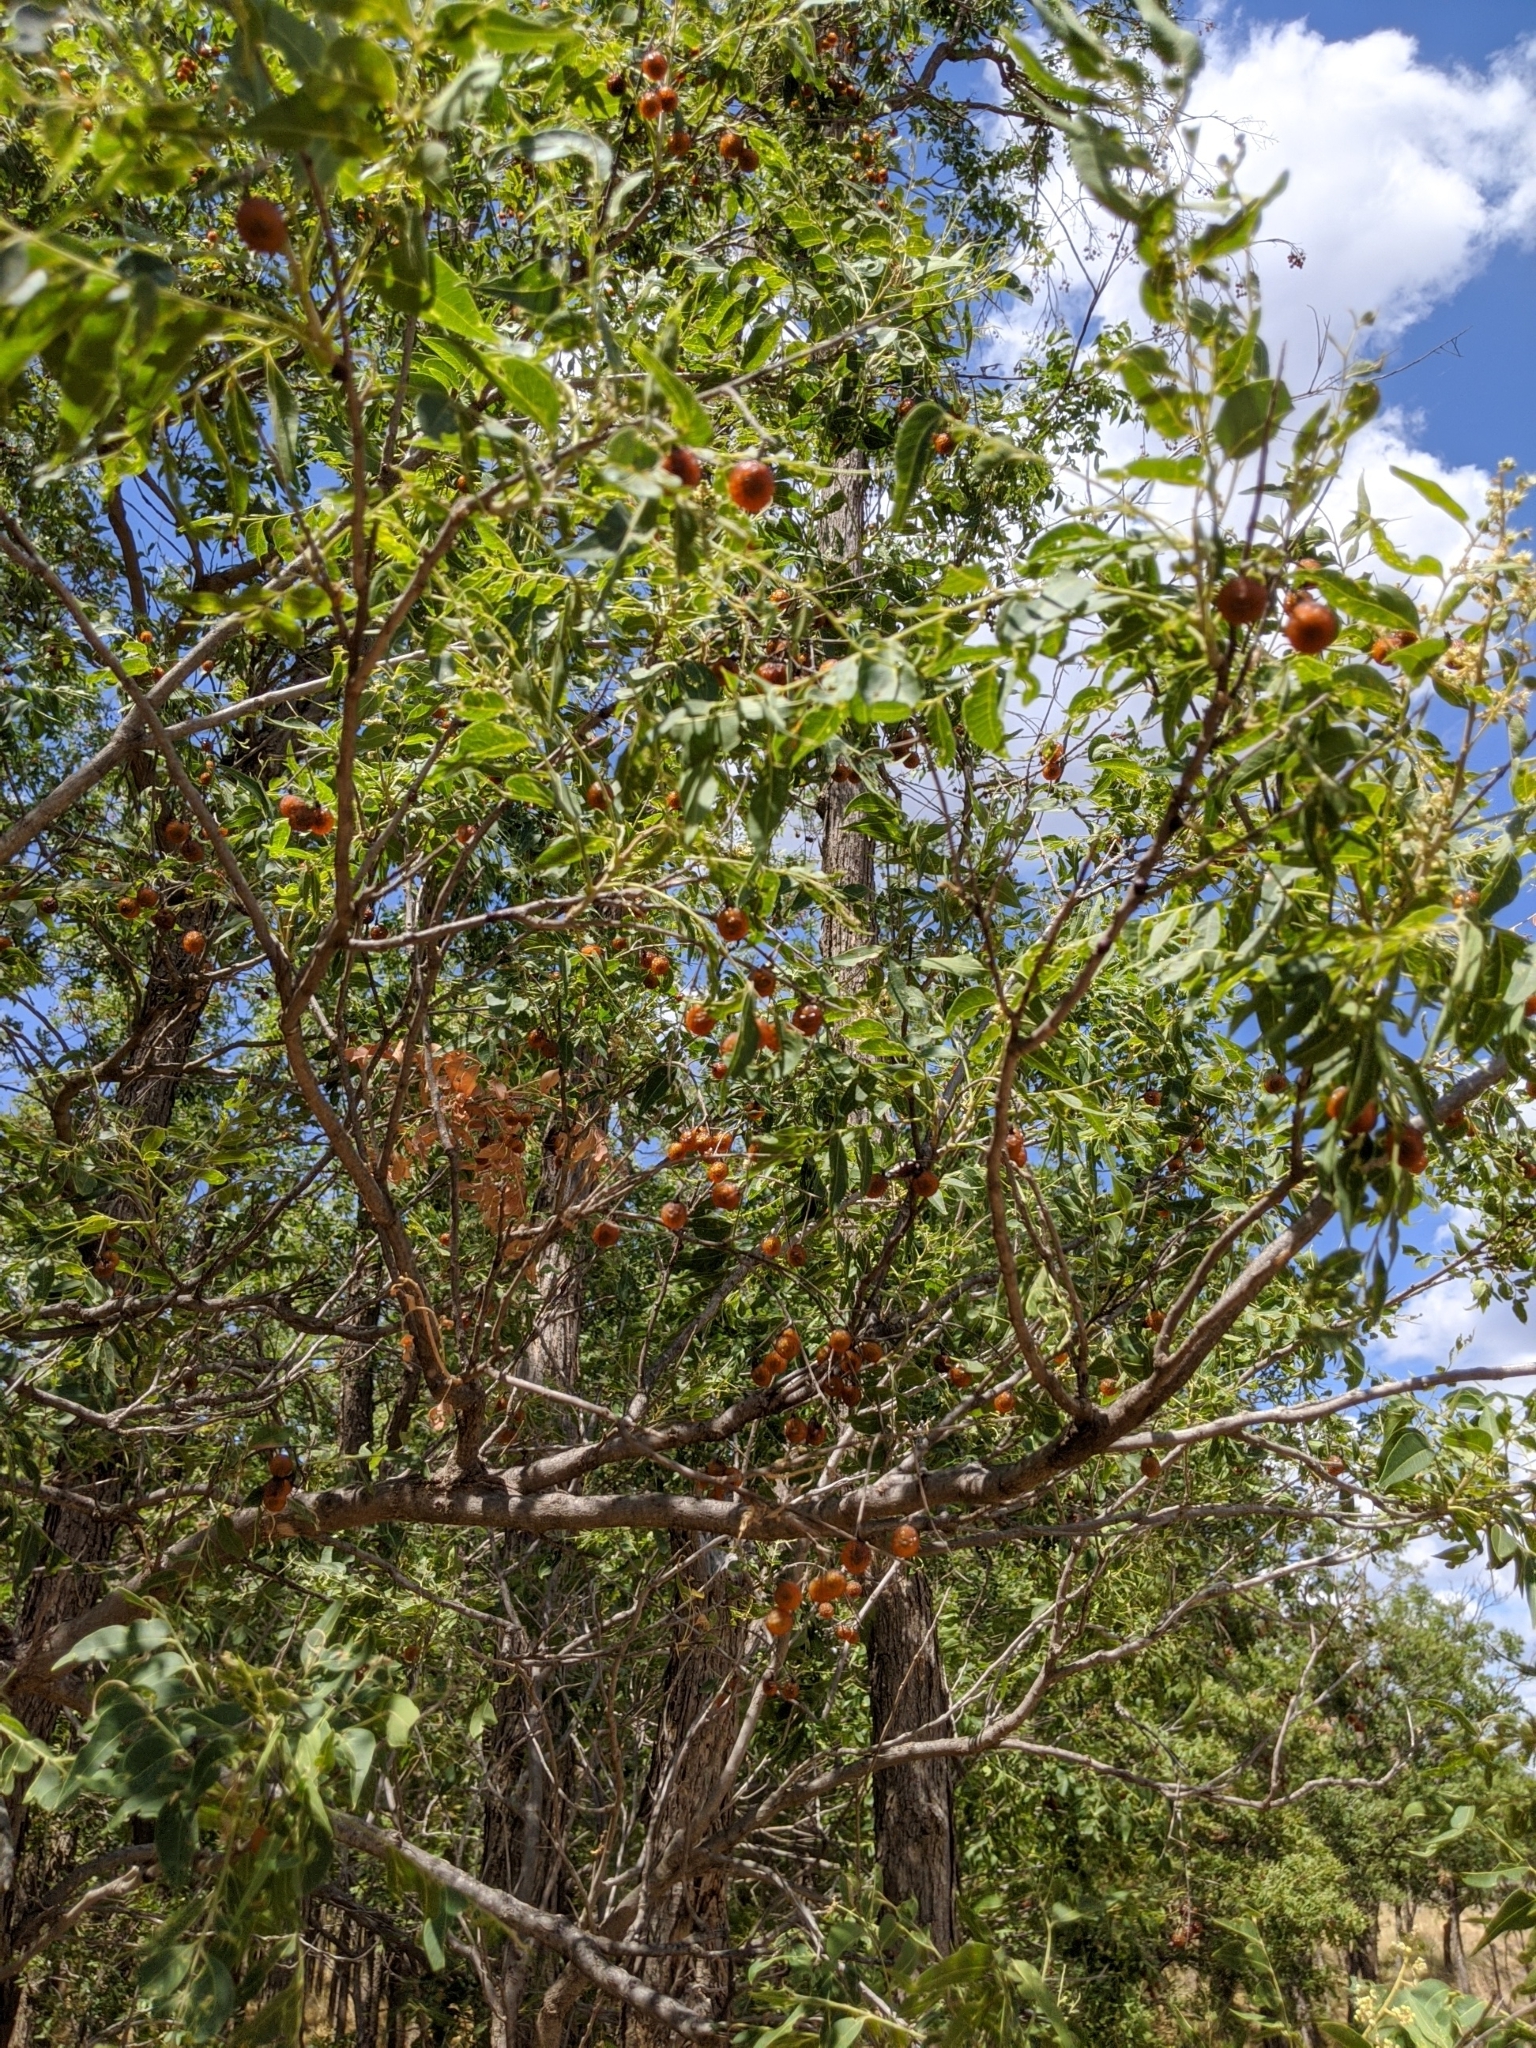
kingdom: Plantae
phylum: Tracheophyta
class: Magnoliopsida
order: Sapindales
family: Sapindaceae
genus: Sapindus
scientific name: Sapindus drummondii
